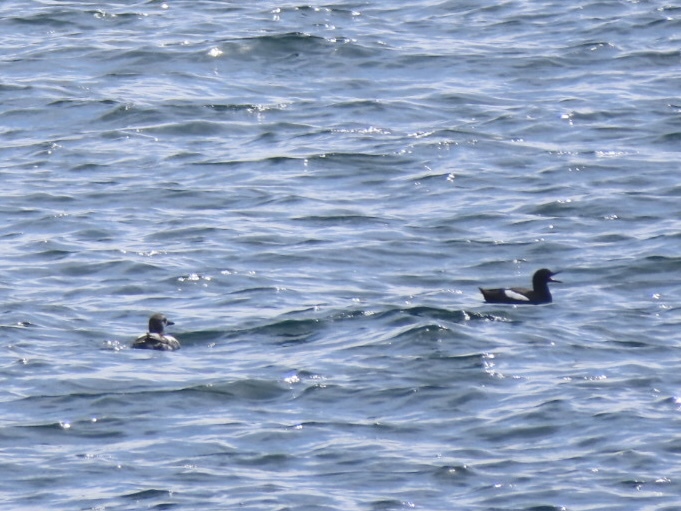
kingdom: Animalia
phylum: Chordata
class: Aves
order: Charadriiformes
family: Alcidae
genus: Cepphus
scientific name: Cepphus columba
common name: Pigeon guillemot
